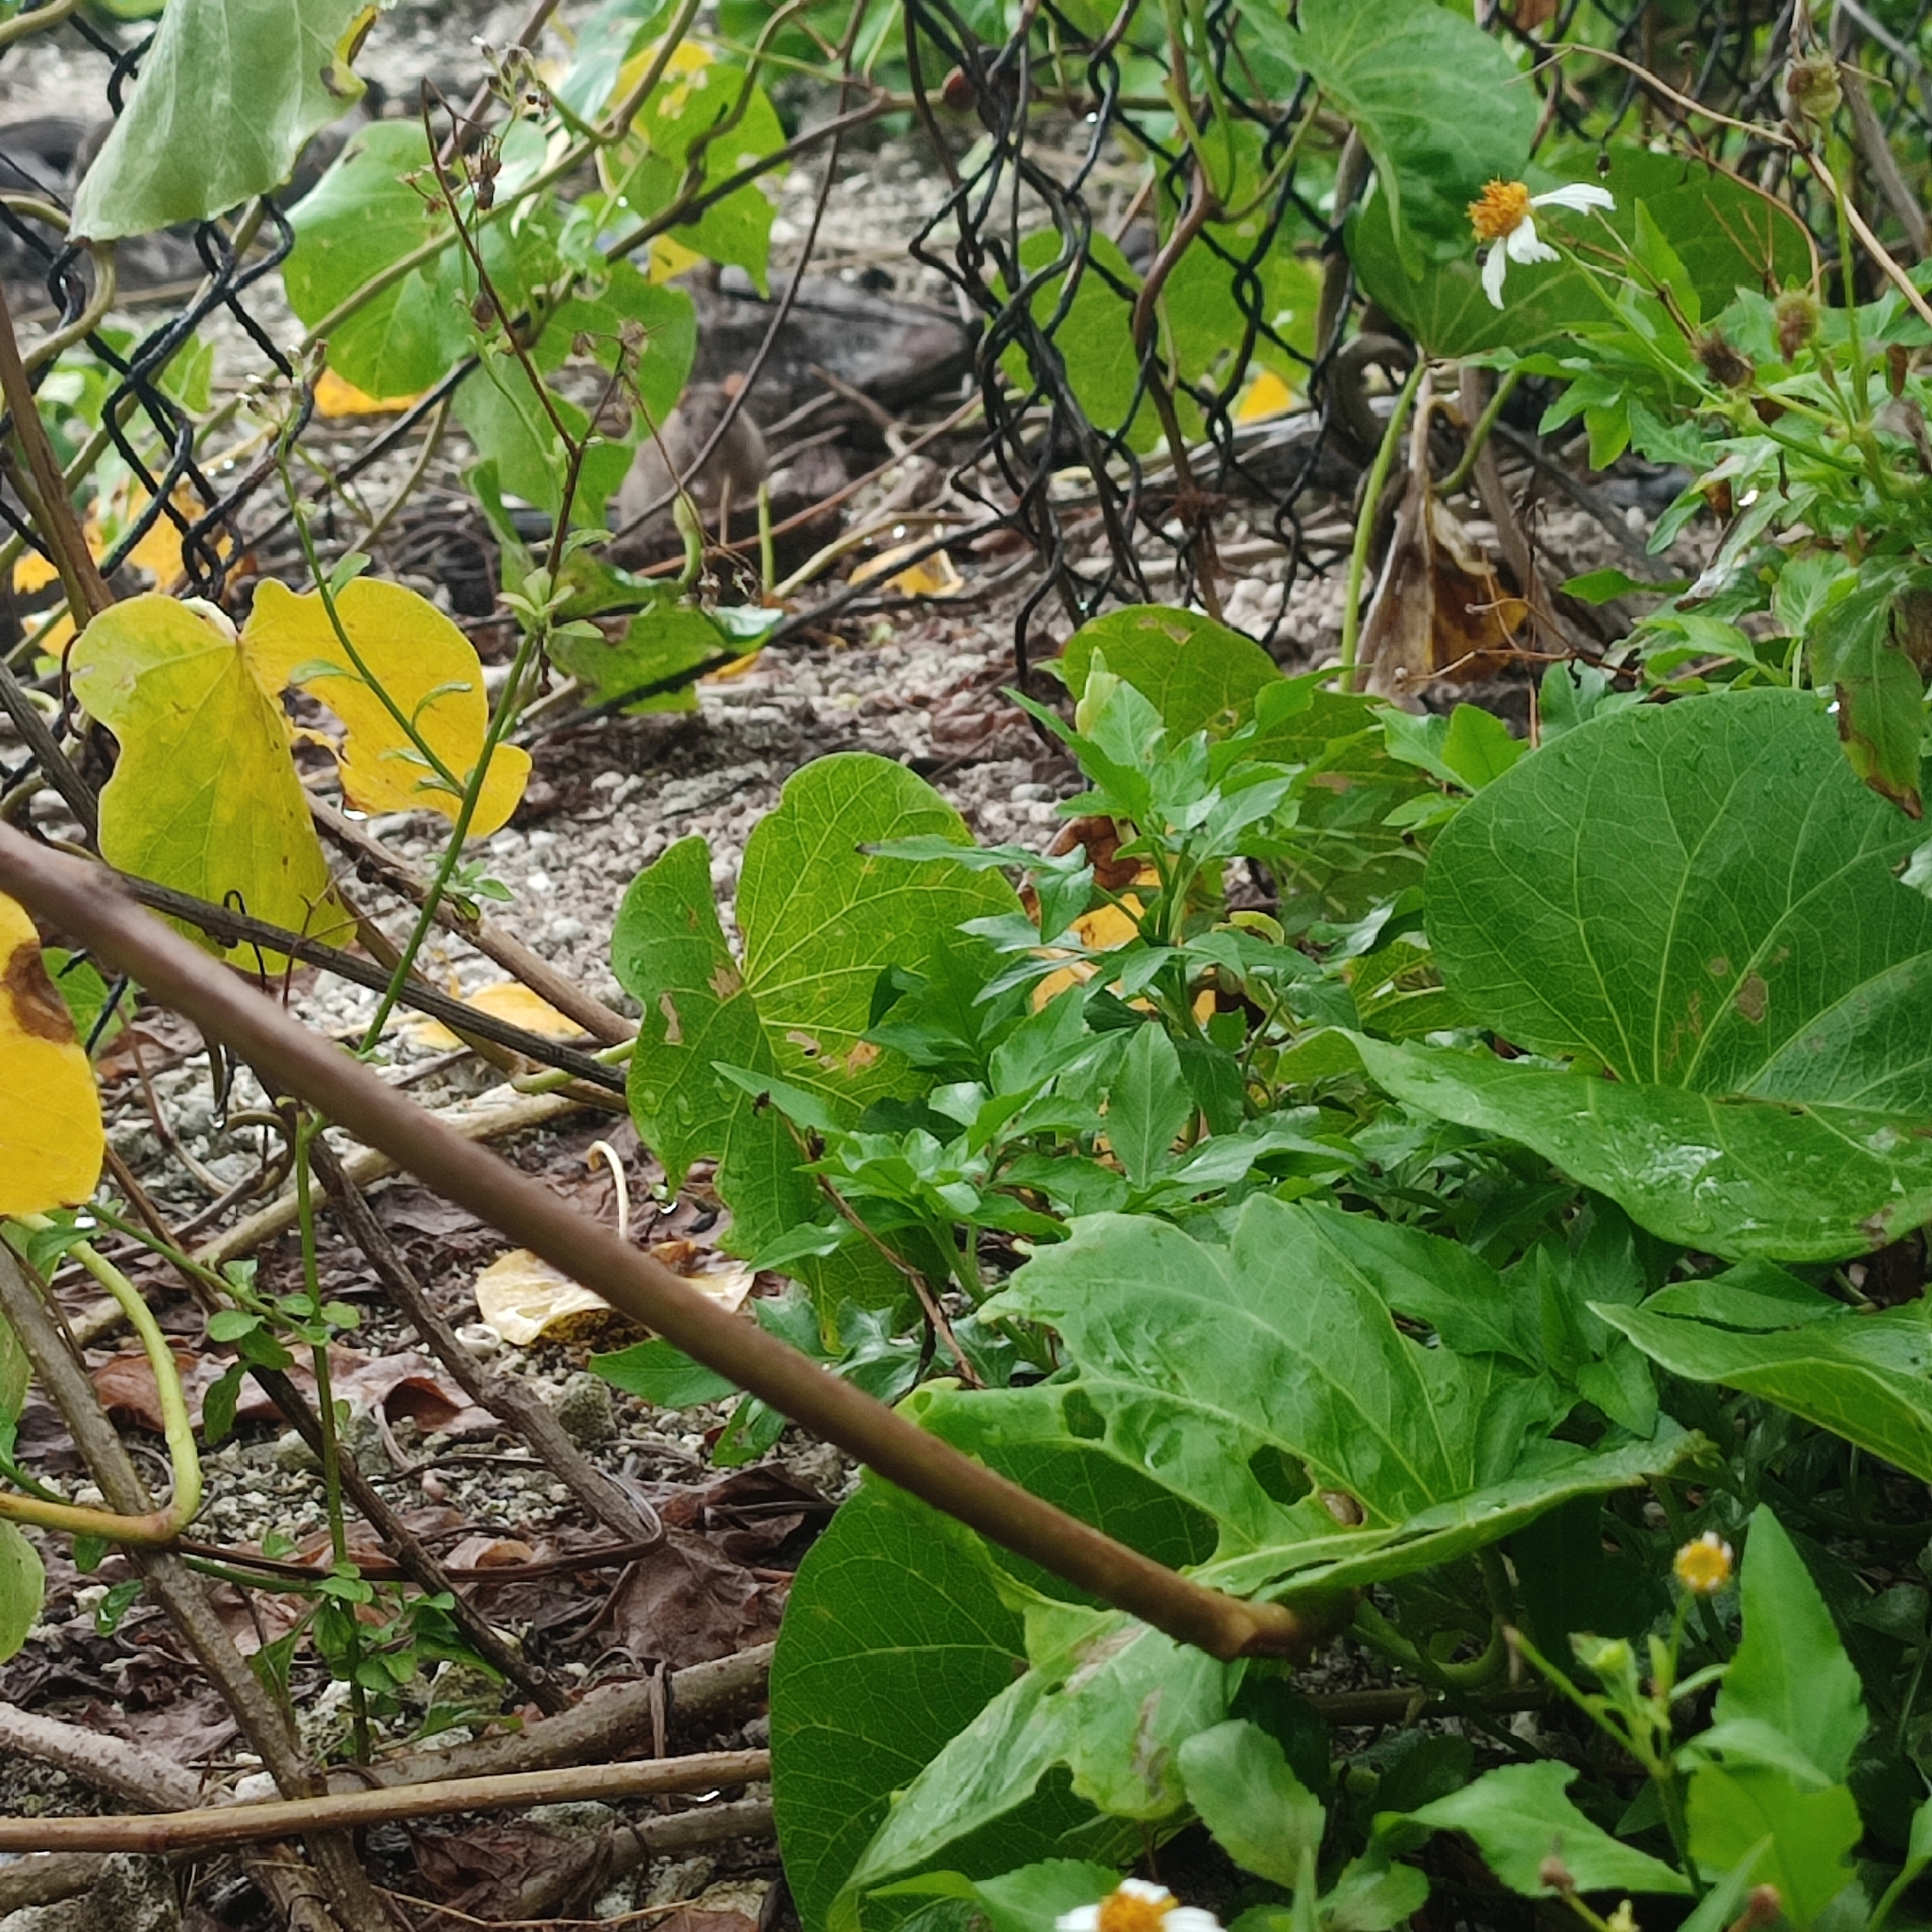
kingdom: Animalia
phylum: Chordata
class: Mammalia
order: Rodentia
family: Muridae
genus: Rattus
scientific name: Rattus rattus
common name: Black rat
